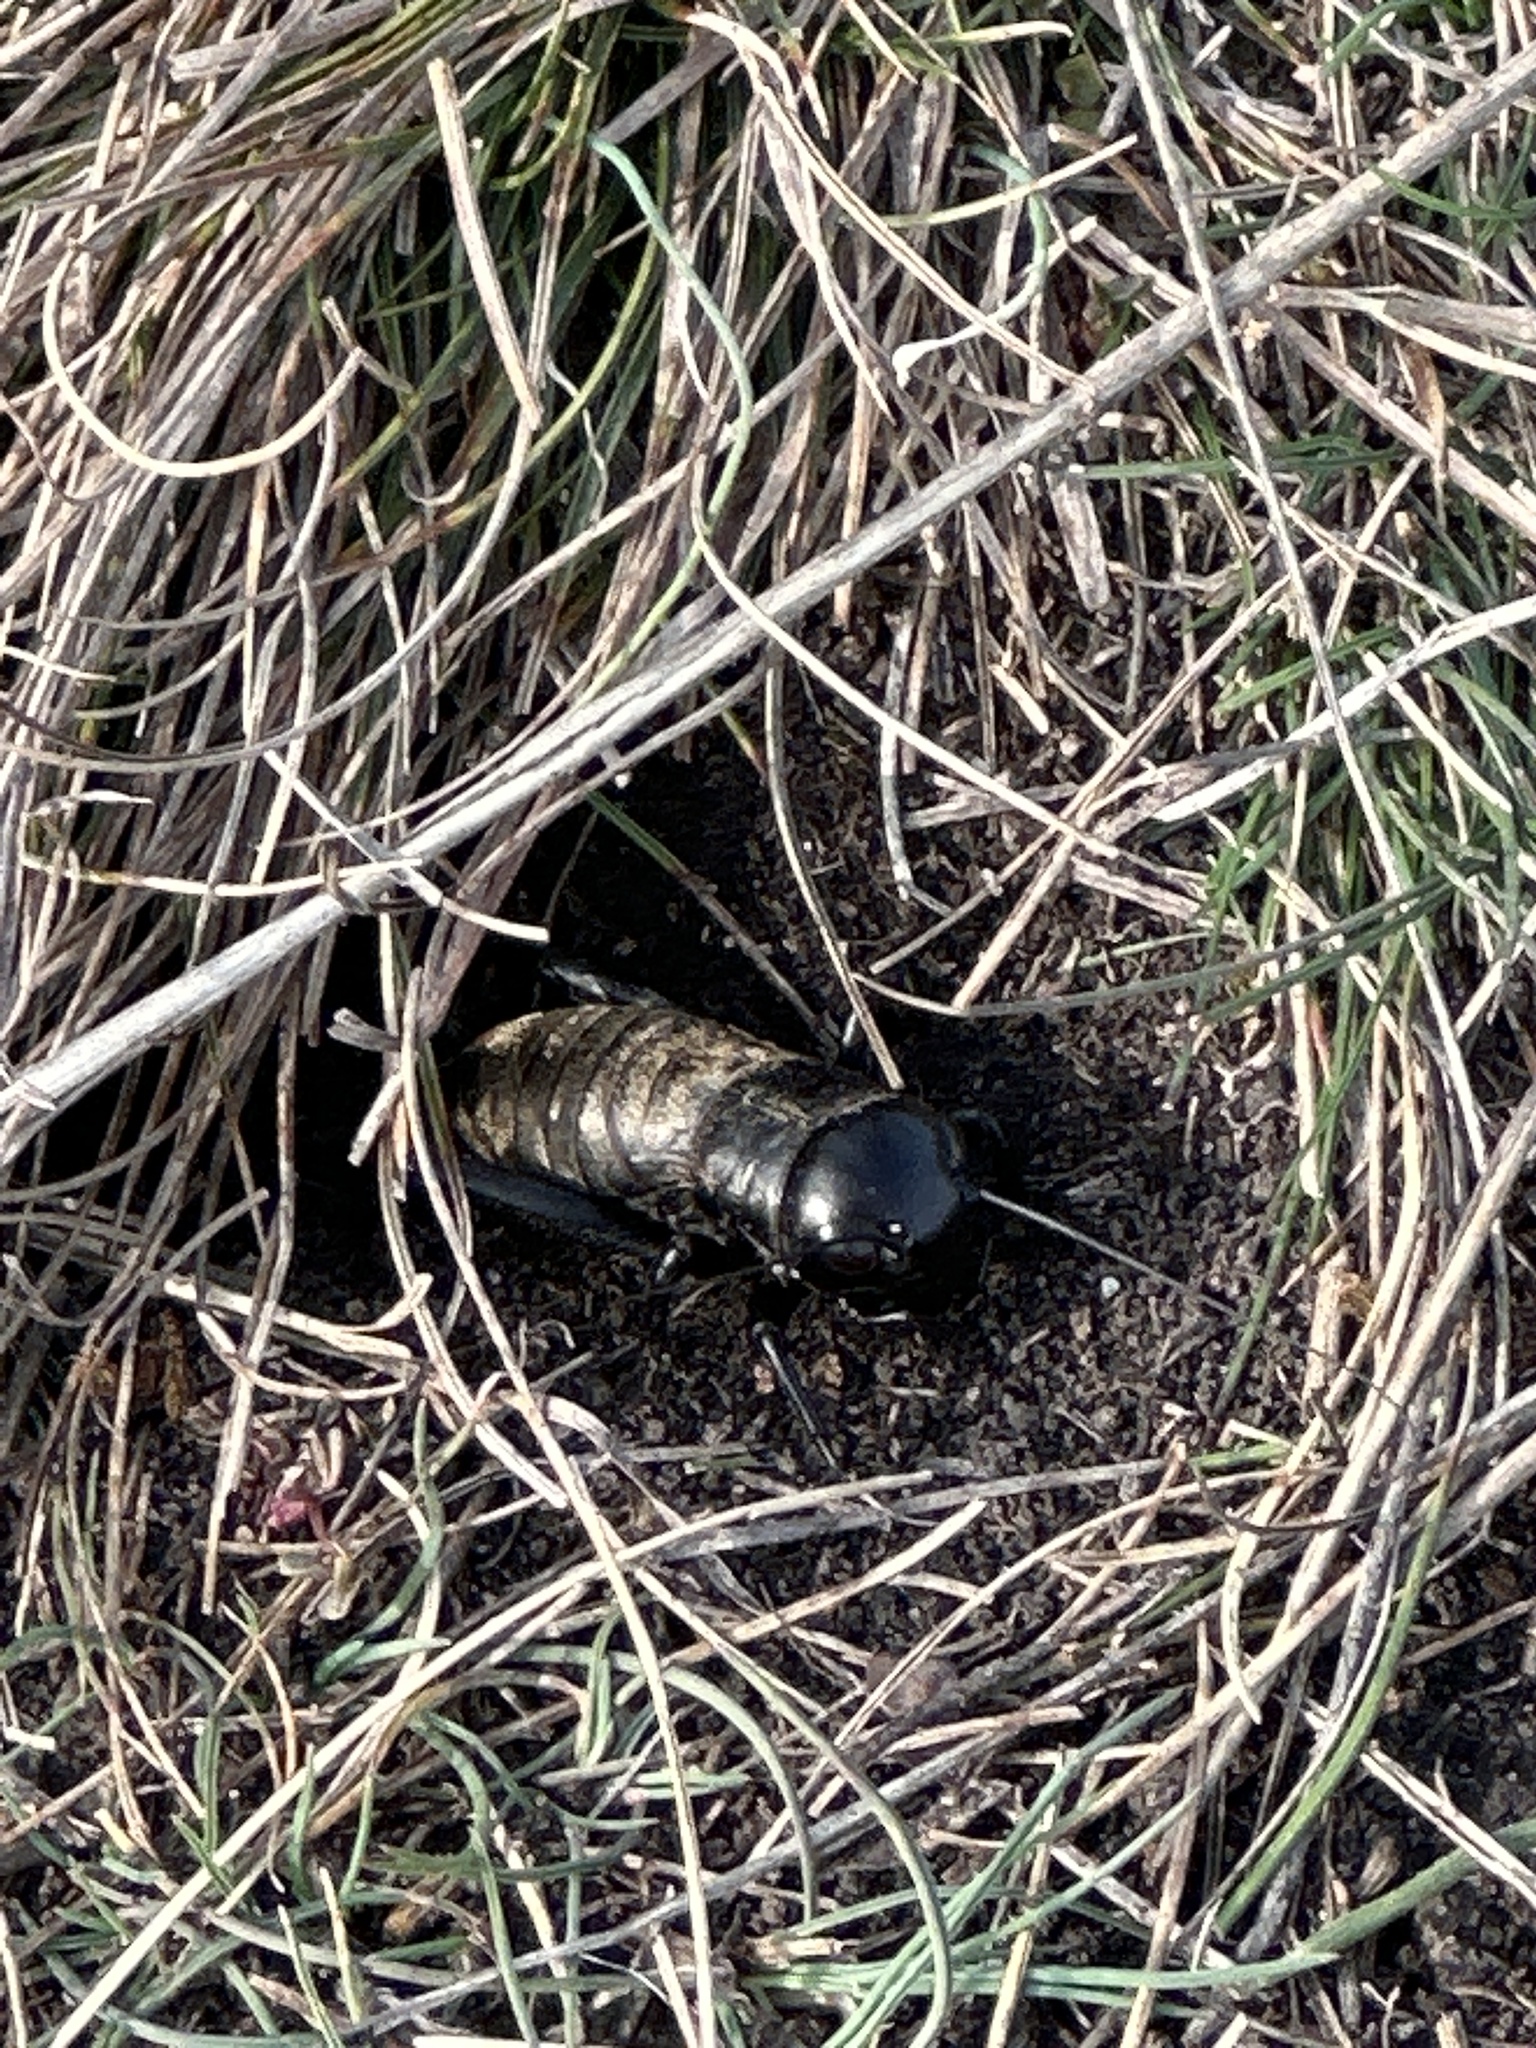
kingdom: Animalia
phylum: Arthropoda
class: Insecta
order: Orthoptera
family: Gryllidae
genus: Gryllus
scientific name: Gryllus campestris
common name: Field cricket
